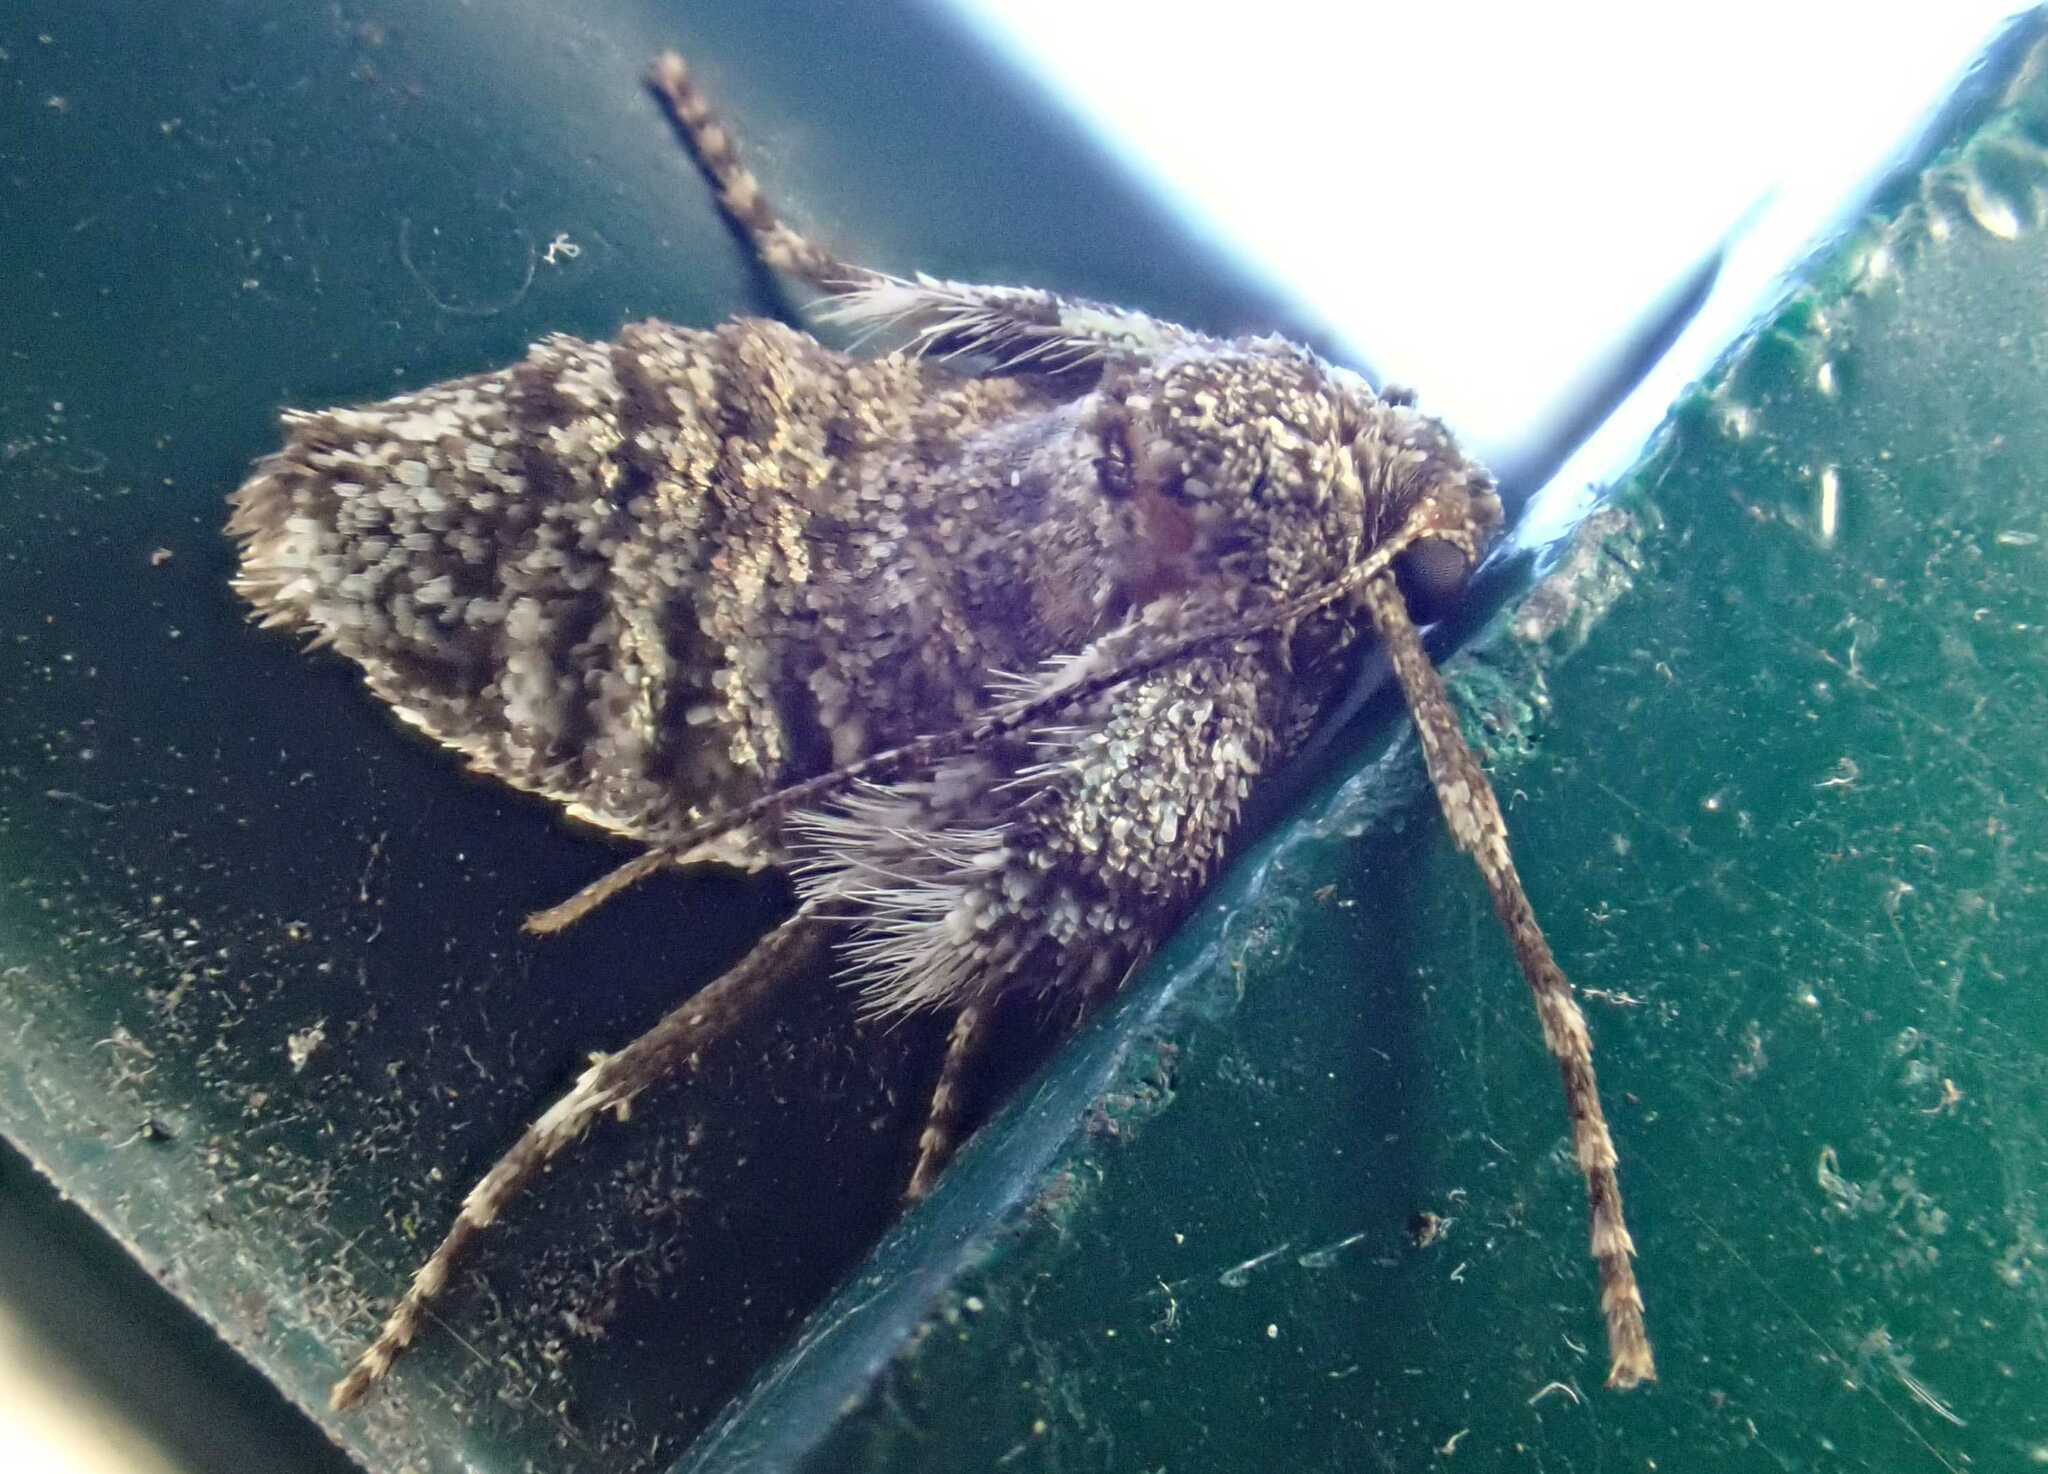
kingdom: Animalia
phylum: Arthropoda
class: Insecta
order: Lepidoptera
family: Geometridae
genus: Operophtera
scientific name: Operophtera brumata
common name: Winter moth
